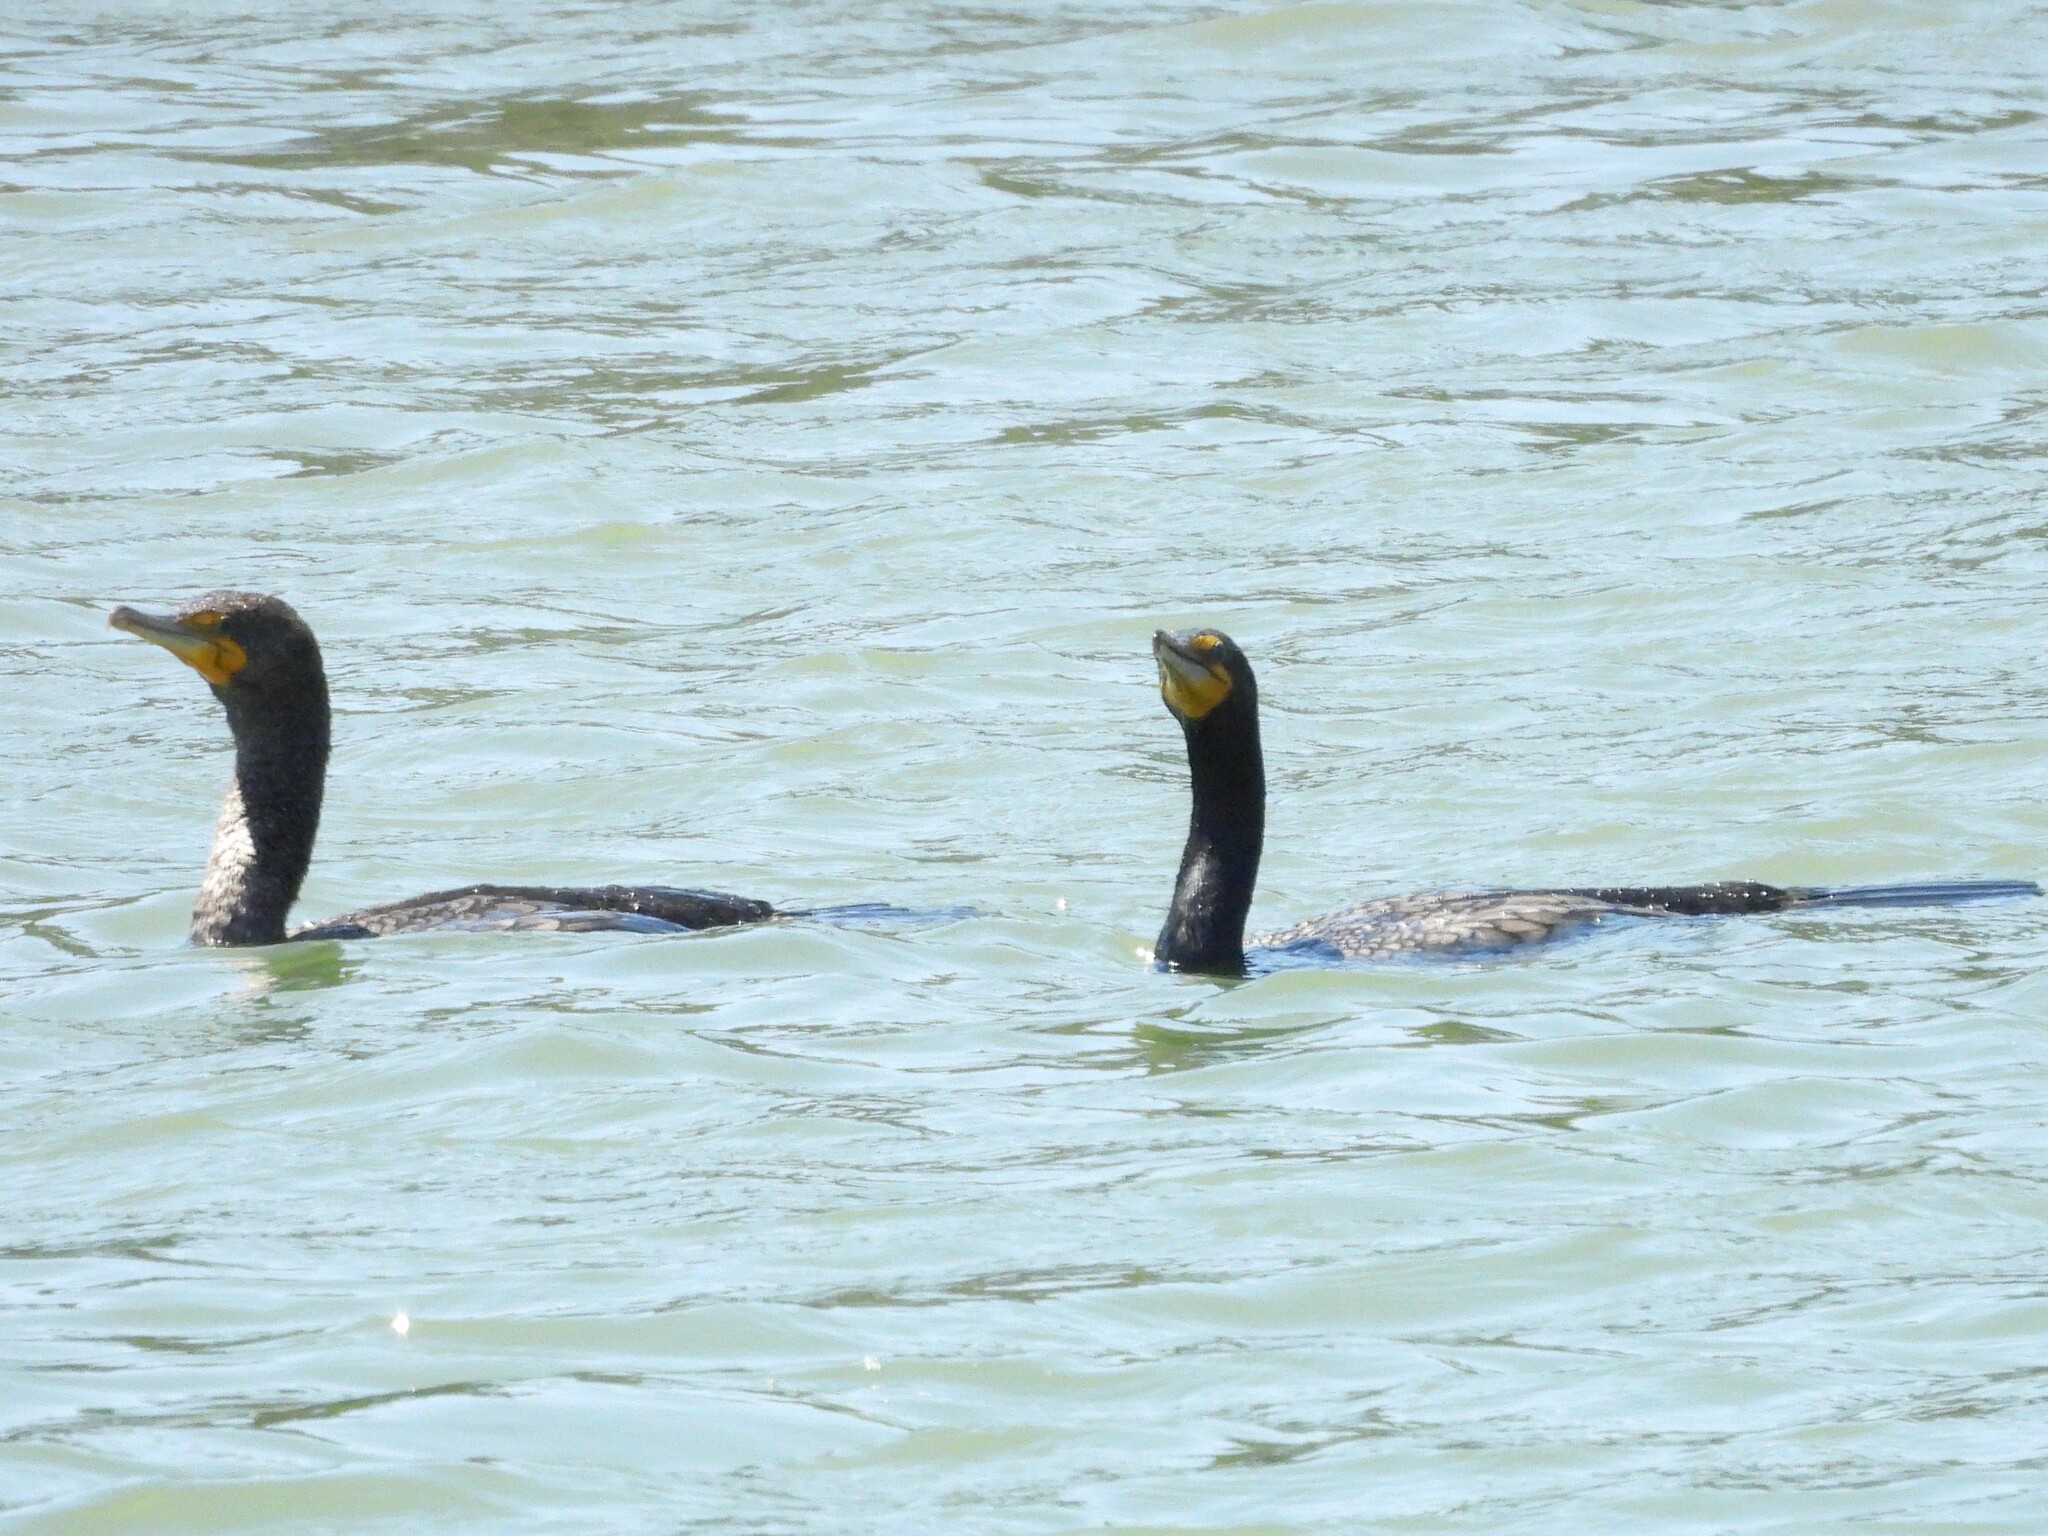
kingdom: Animalia
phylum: Chordata
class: Aves
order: Suliformes
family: Phalacrocoracidae
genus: Phalacrocorax
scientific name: Phalacrocorax auritus
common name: Double-crested cormorant
